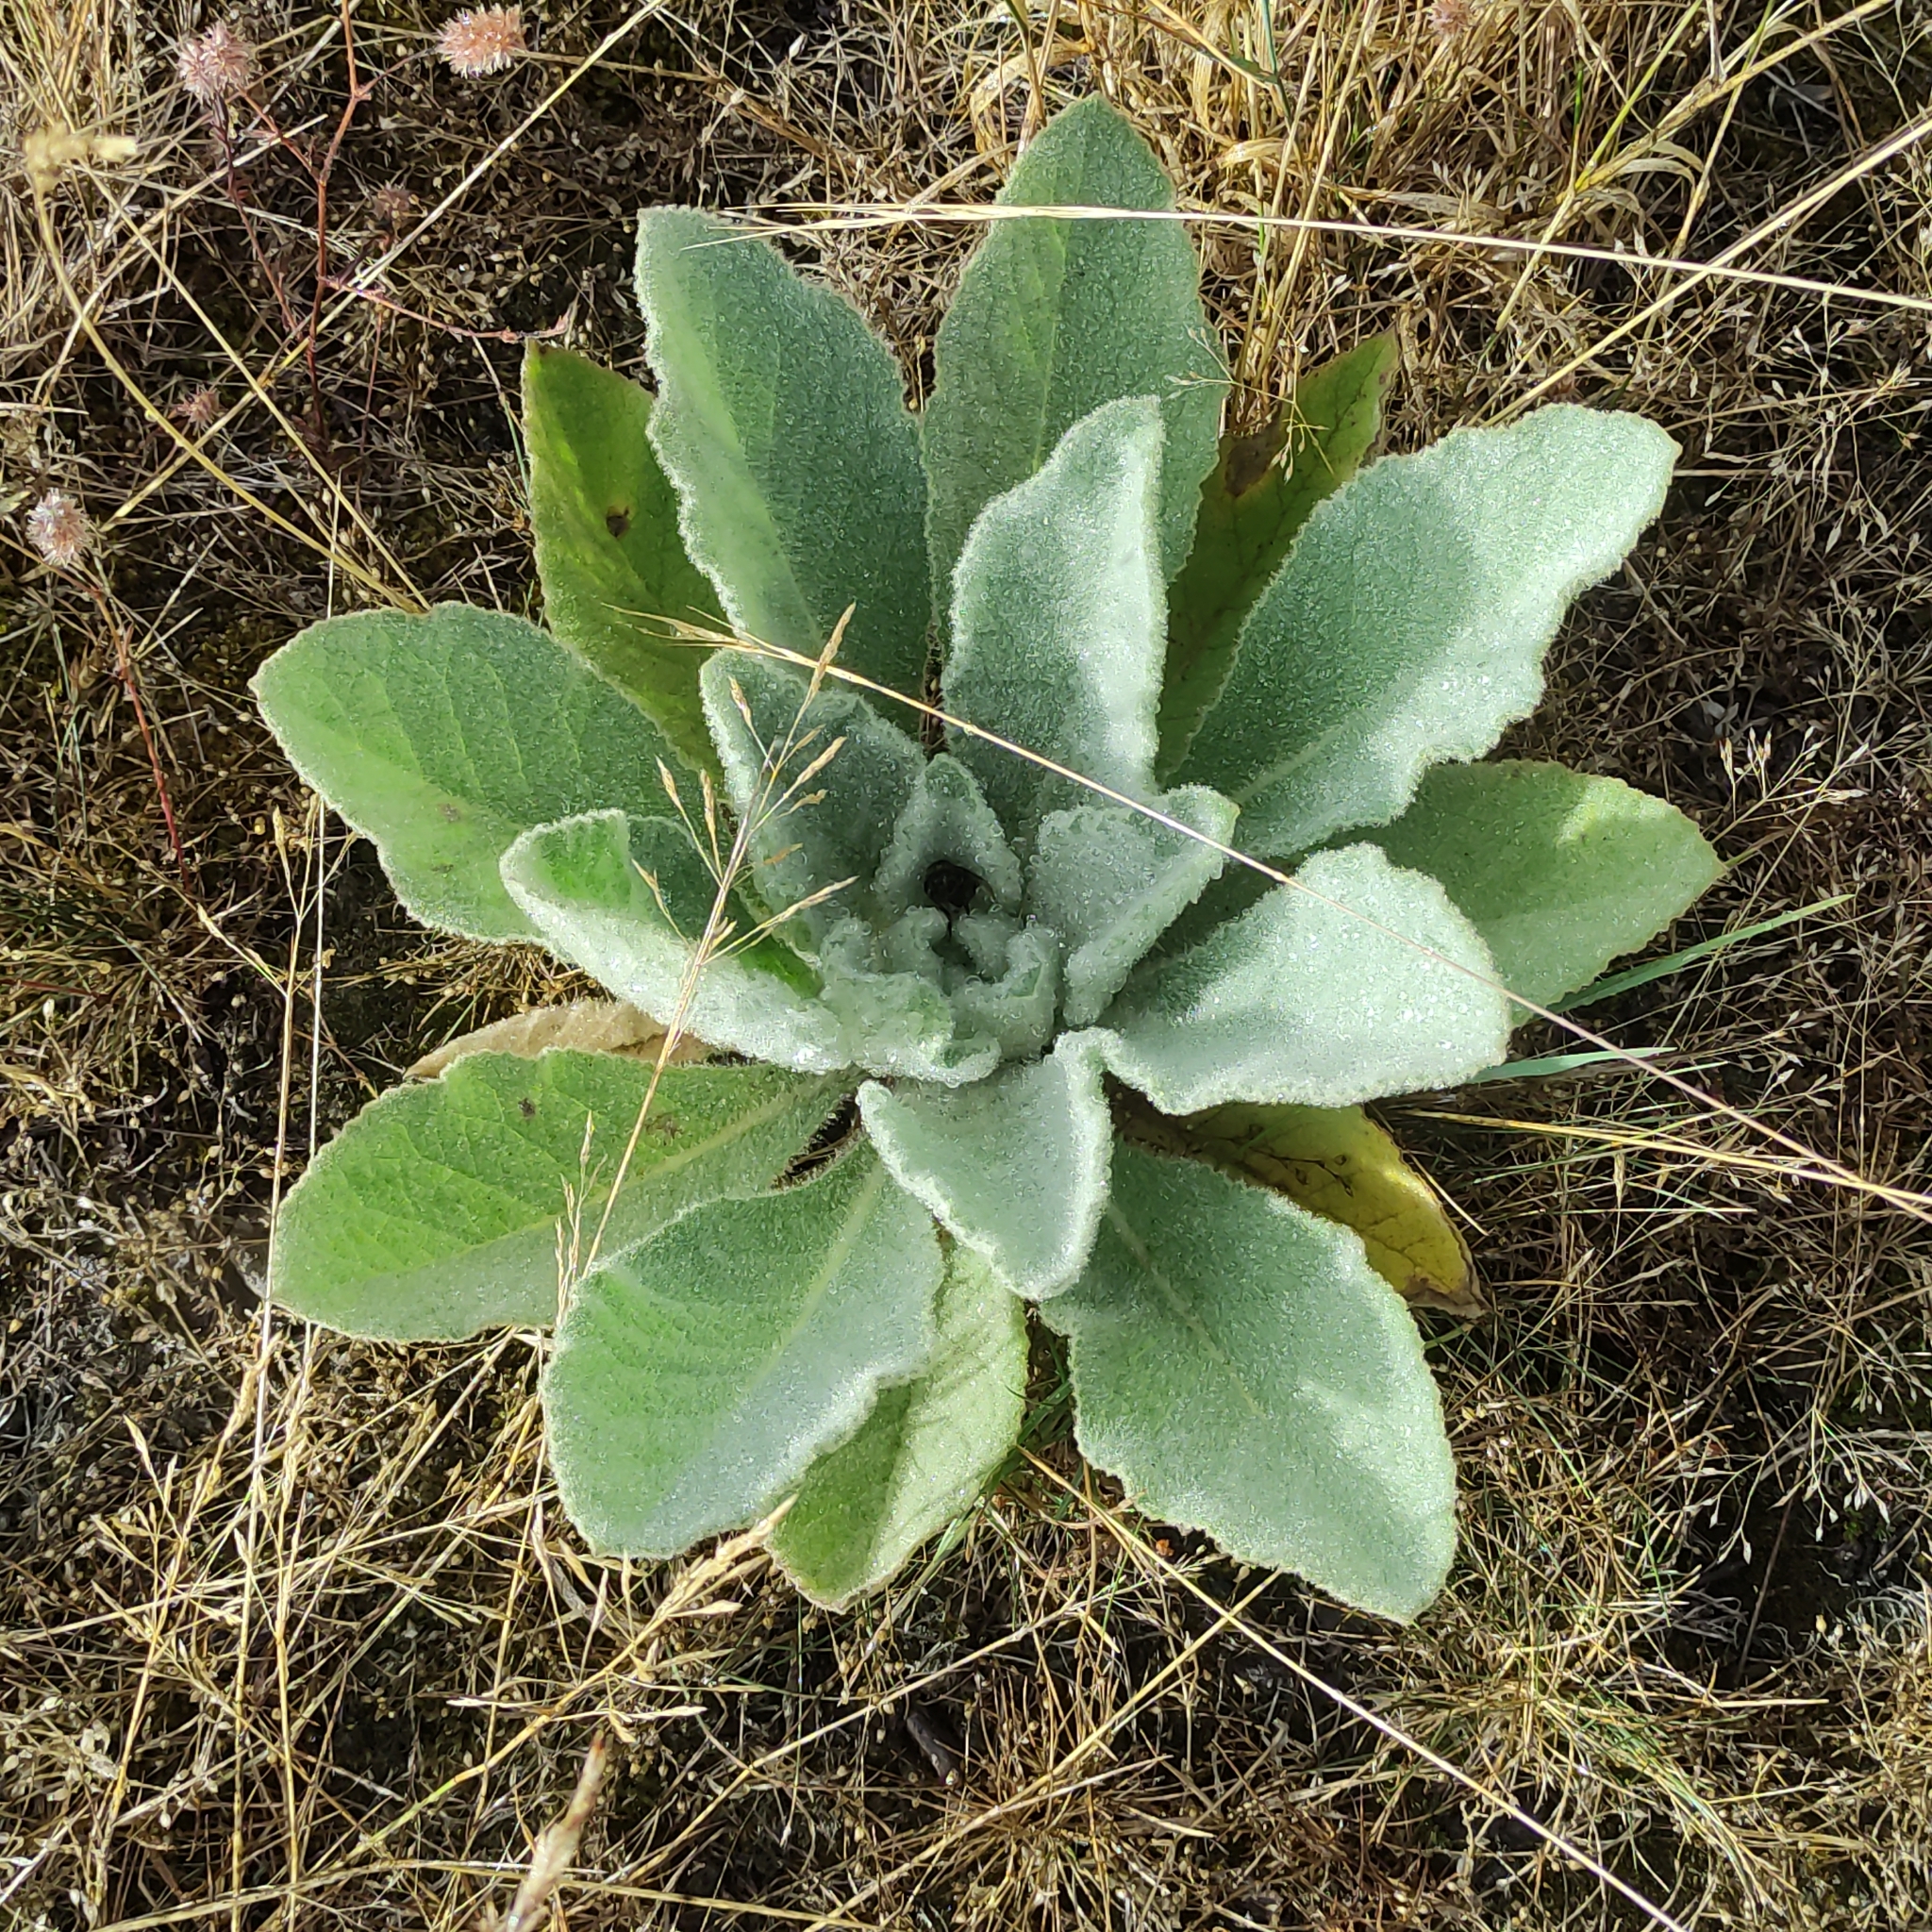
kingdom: Plantae
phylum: Tracheophyta
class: Magnoliopsida
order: Lamiales
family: Scrophulariaceae
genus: Verbascum
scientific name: Verbascum thapsus
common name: Common mullein
